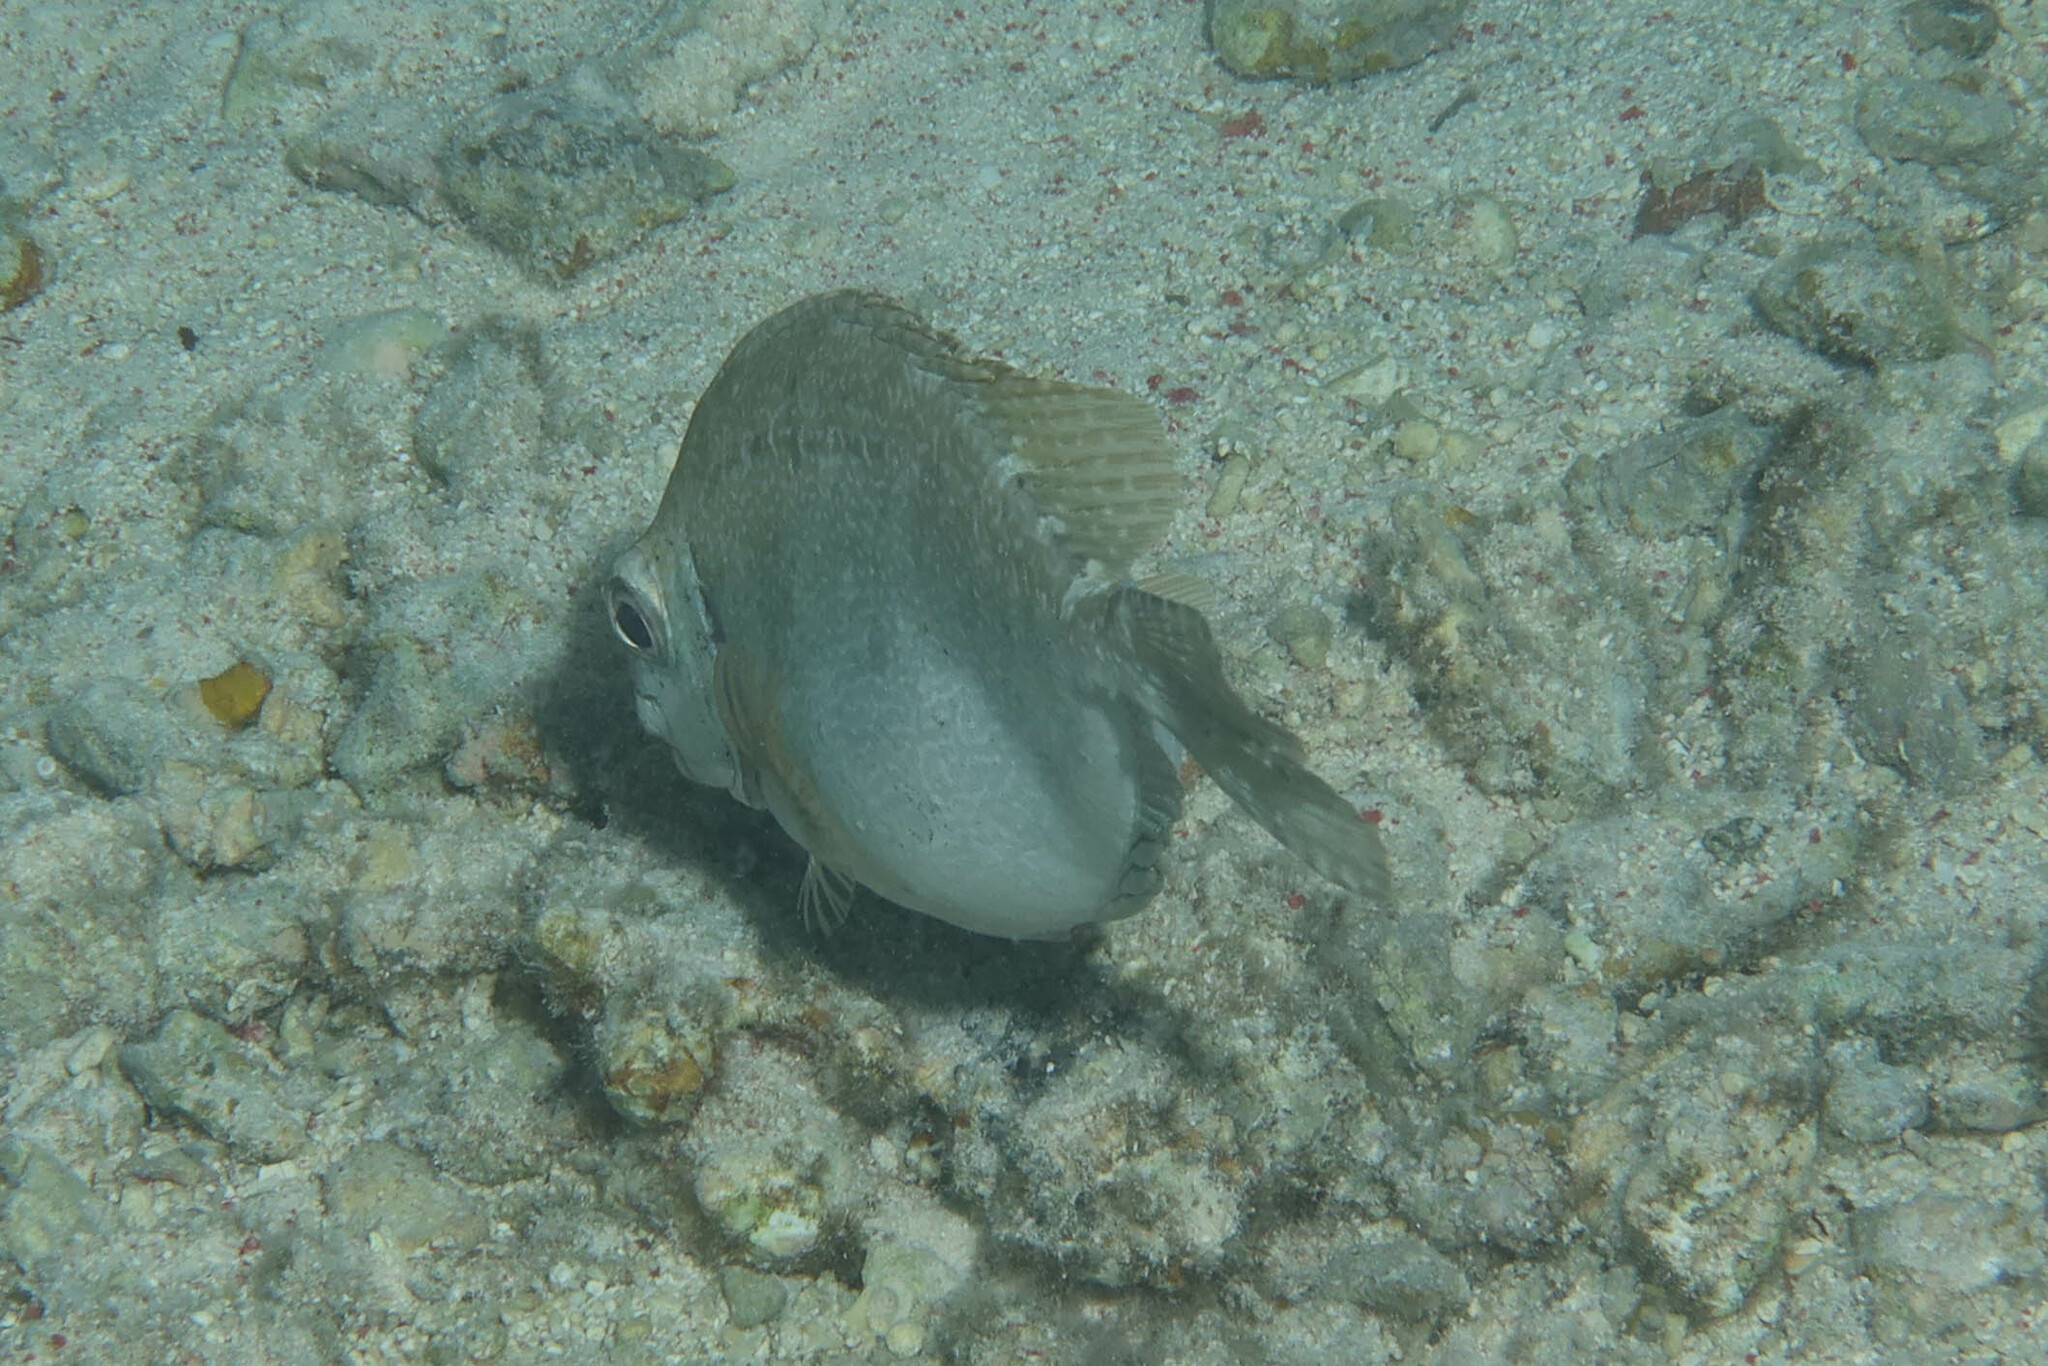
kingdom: Animalia
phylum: Chordata
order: Perciformes
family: Siganidae
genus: Siganus
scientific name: Siganus luridus
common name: Dusky spinefoot
